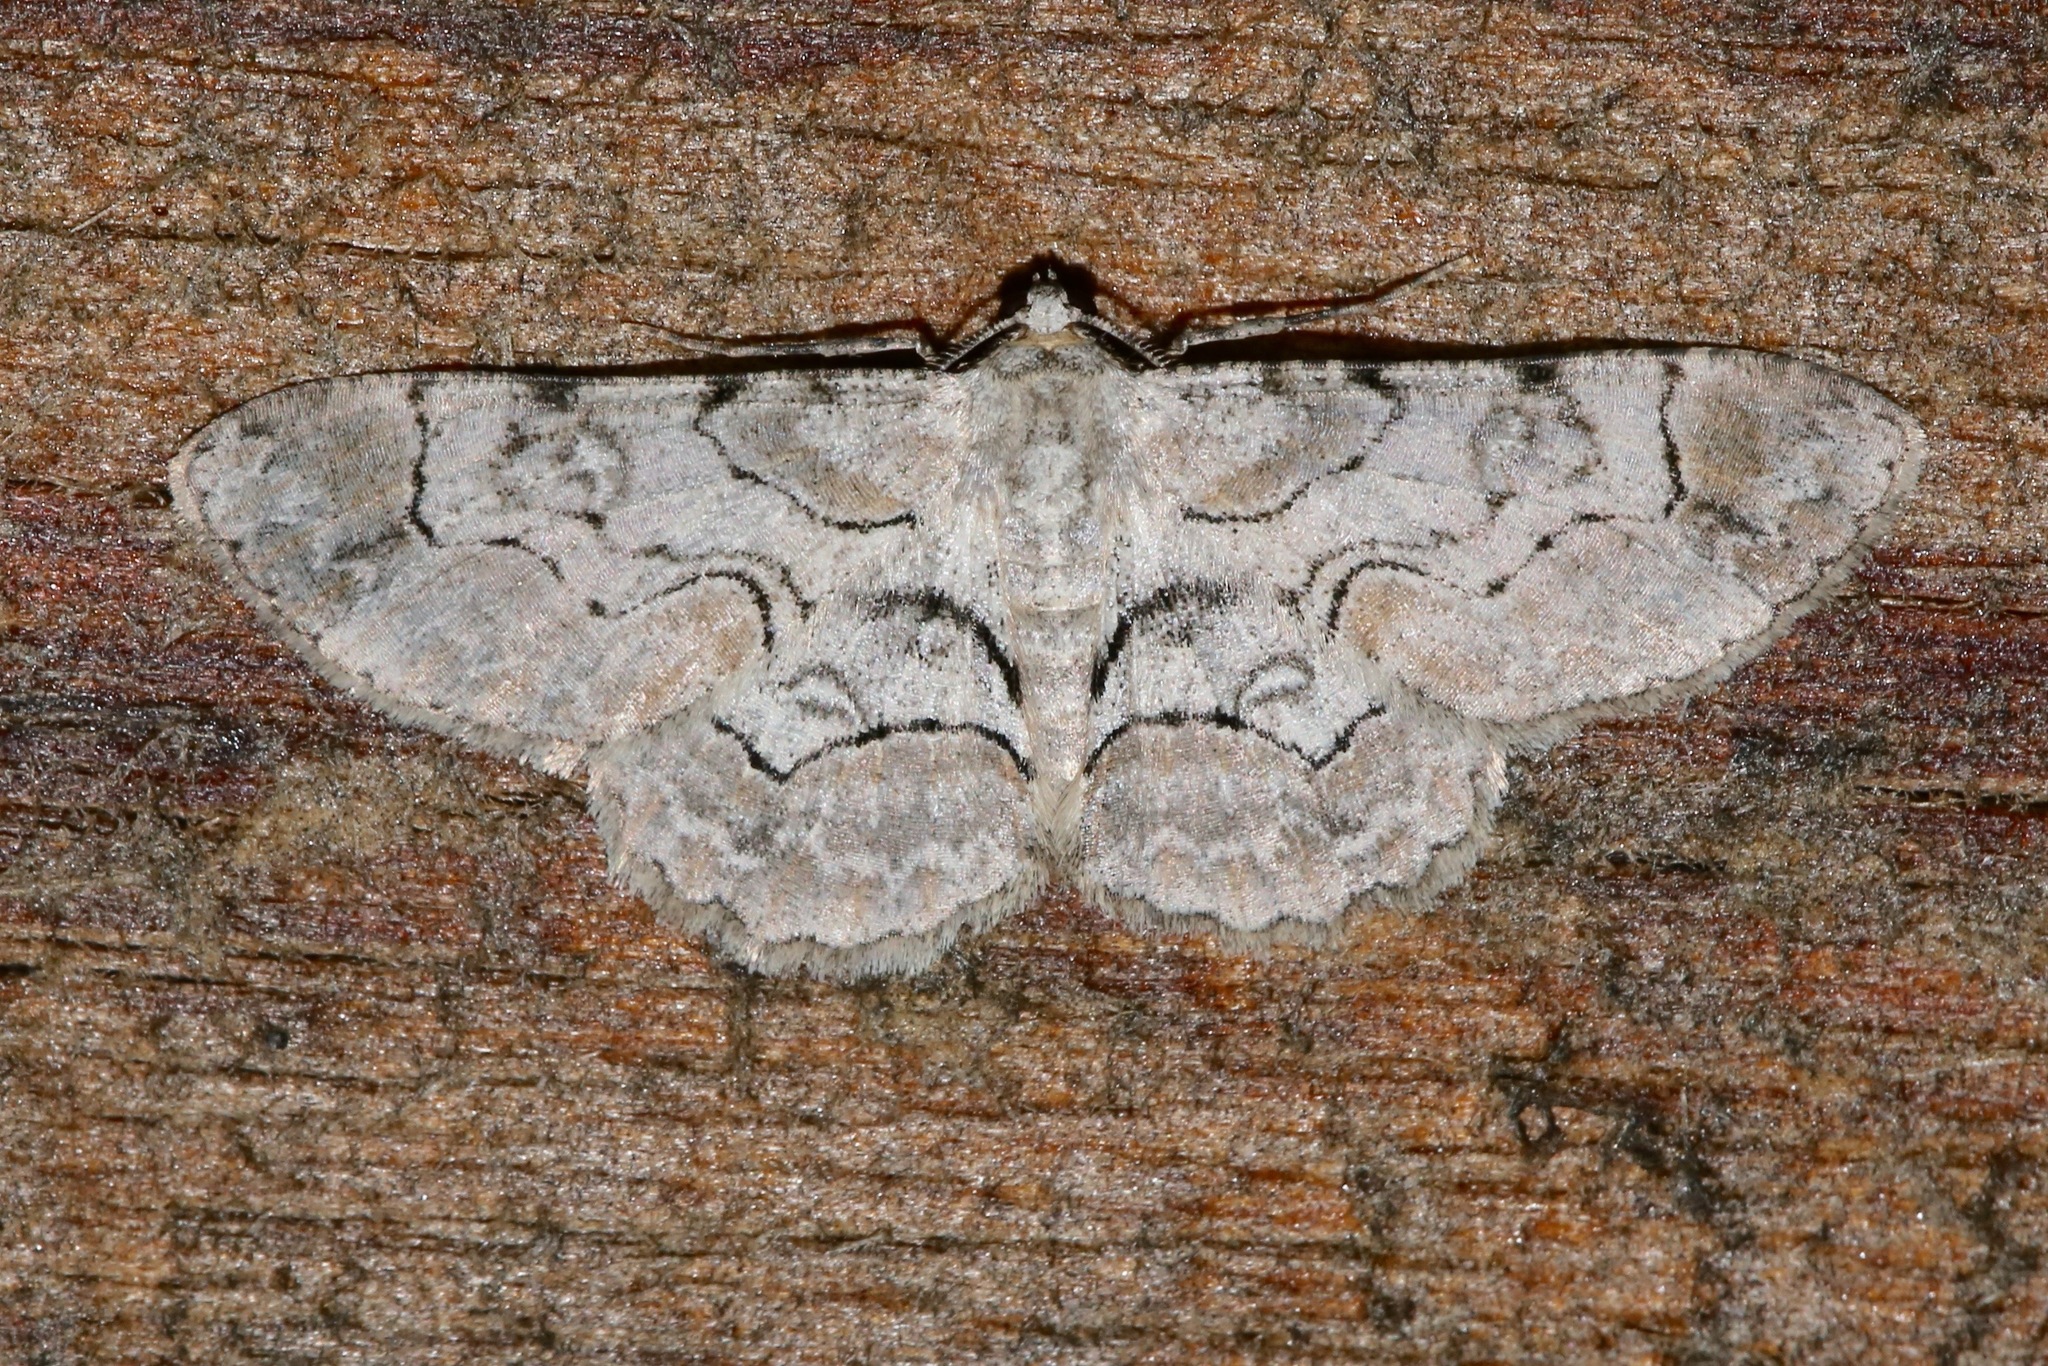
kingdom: Animalia
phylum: Arthropoda
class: Insecta
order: Lepidoptera
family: Geometridae
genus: Iridopsis
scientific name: Iridopsis larvaria
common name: Bent-line gray
